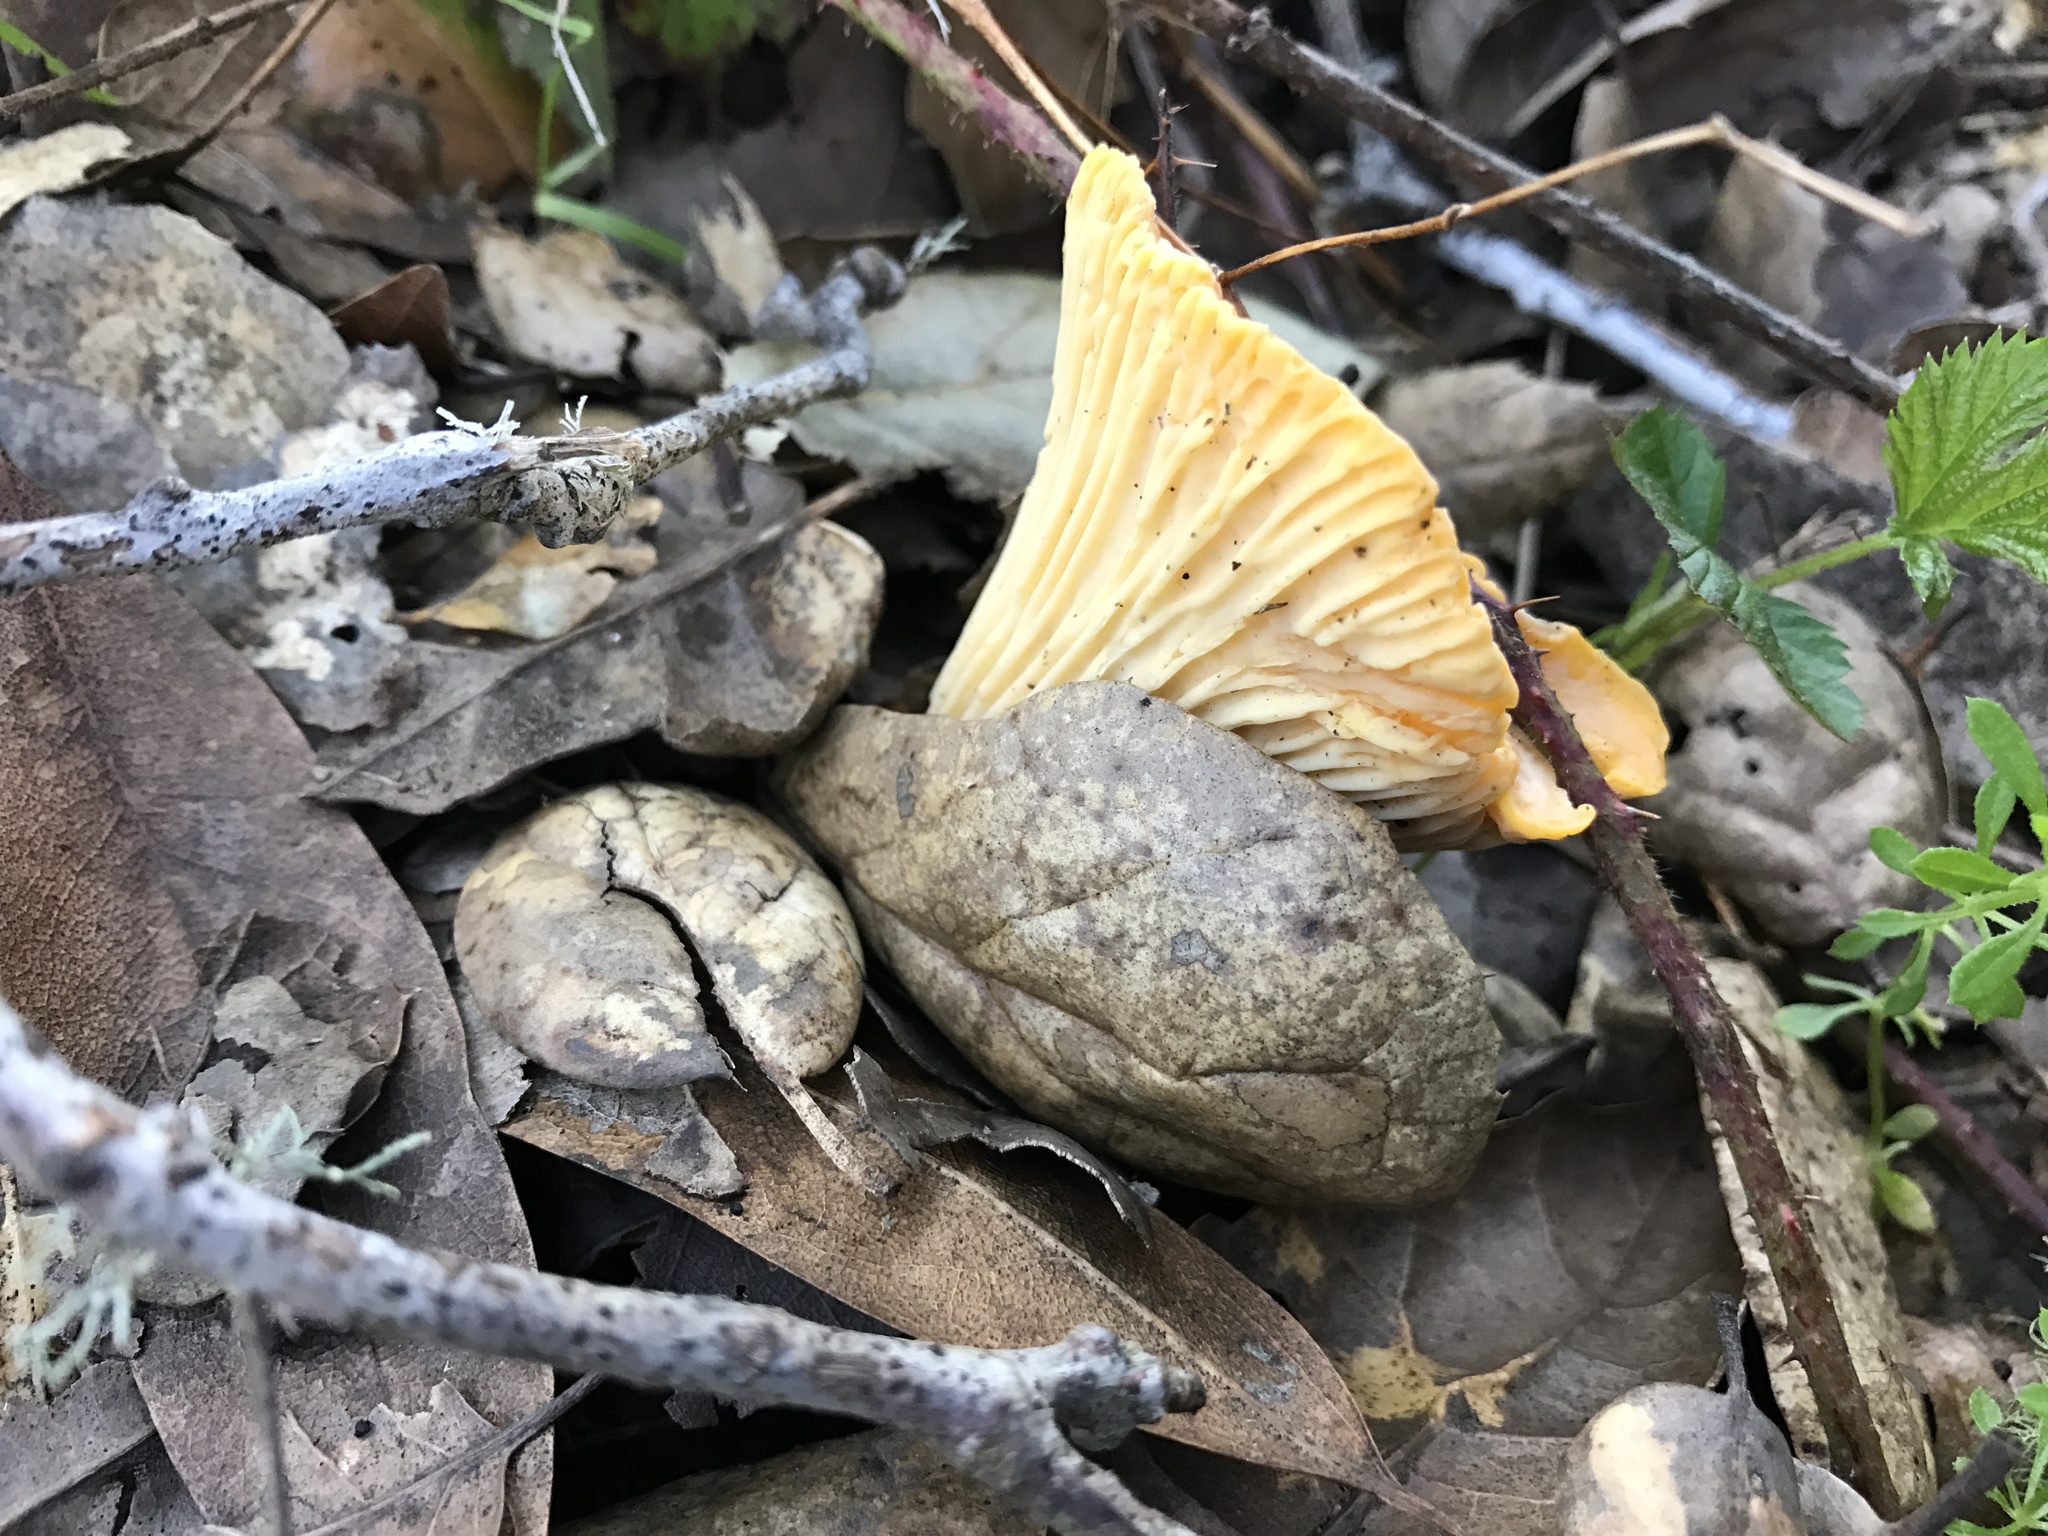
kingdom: Fungi
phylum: Basidiomycota
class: Agaricomycetes
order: Cantharellales
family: Hydnaceae
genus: Cantharellus
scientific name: Cantharellus californicus
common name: California golden chanterelle
